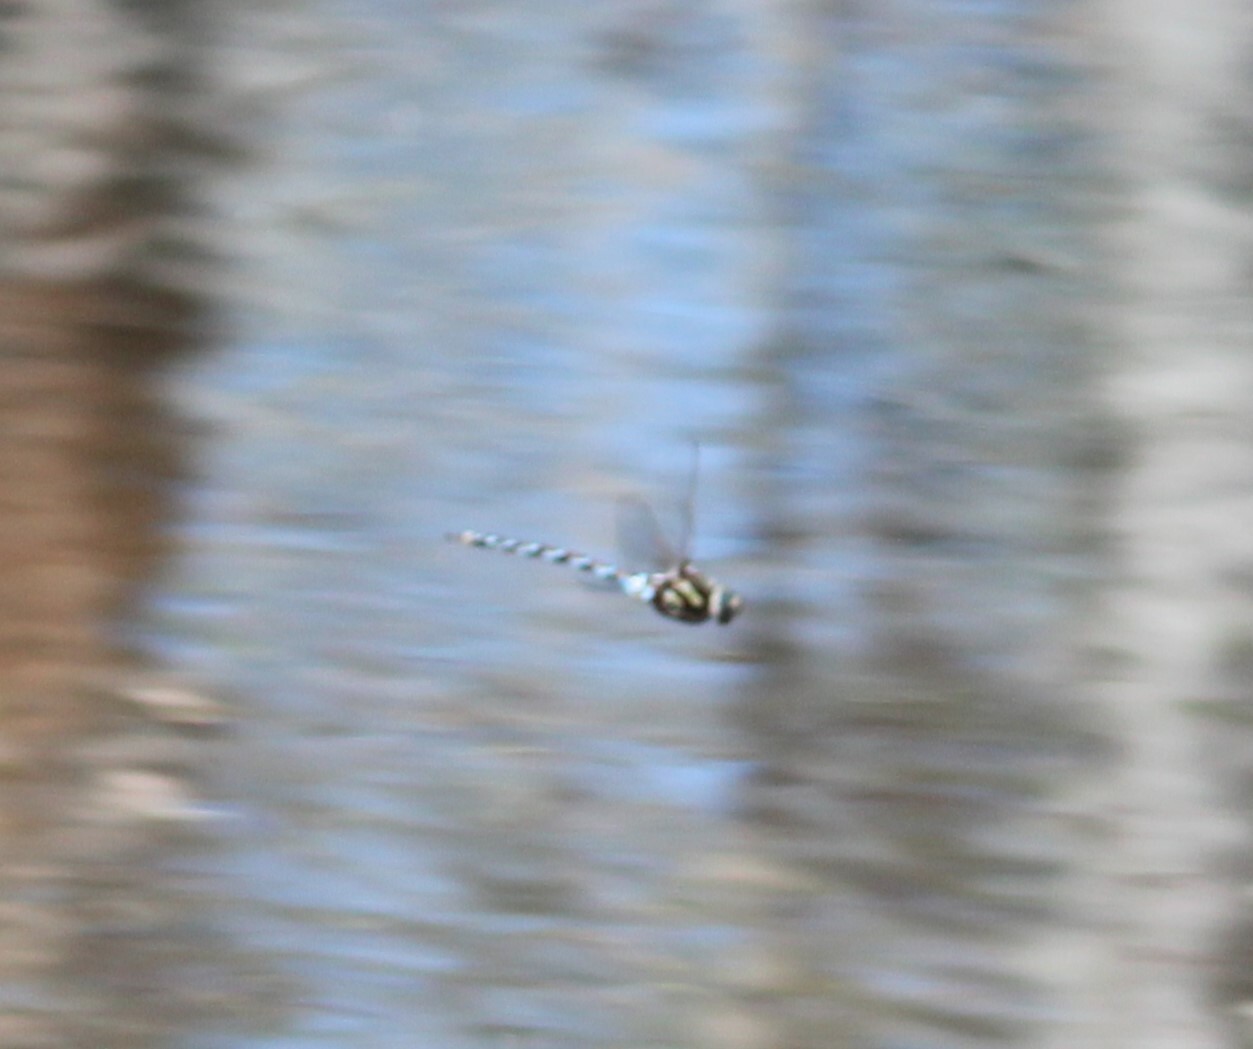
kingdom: Animalia
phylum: Arthropoda
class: Insecta
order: Odonata
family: Aeshnidae
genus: Basiaeschna
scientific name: Basiaeschna janata
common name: Springtime darner
